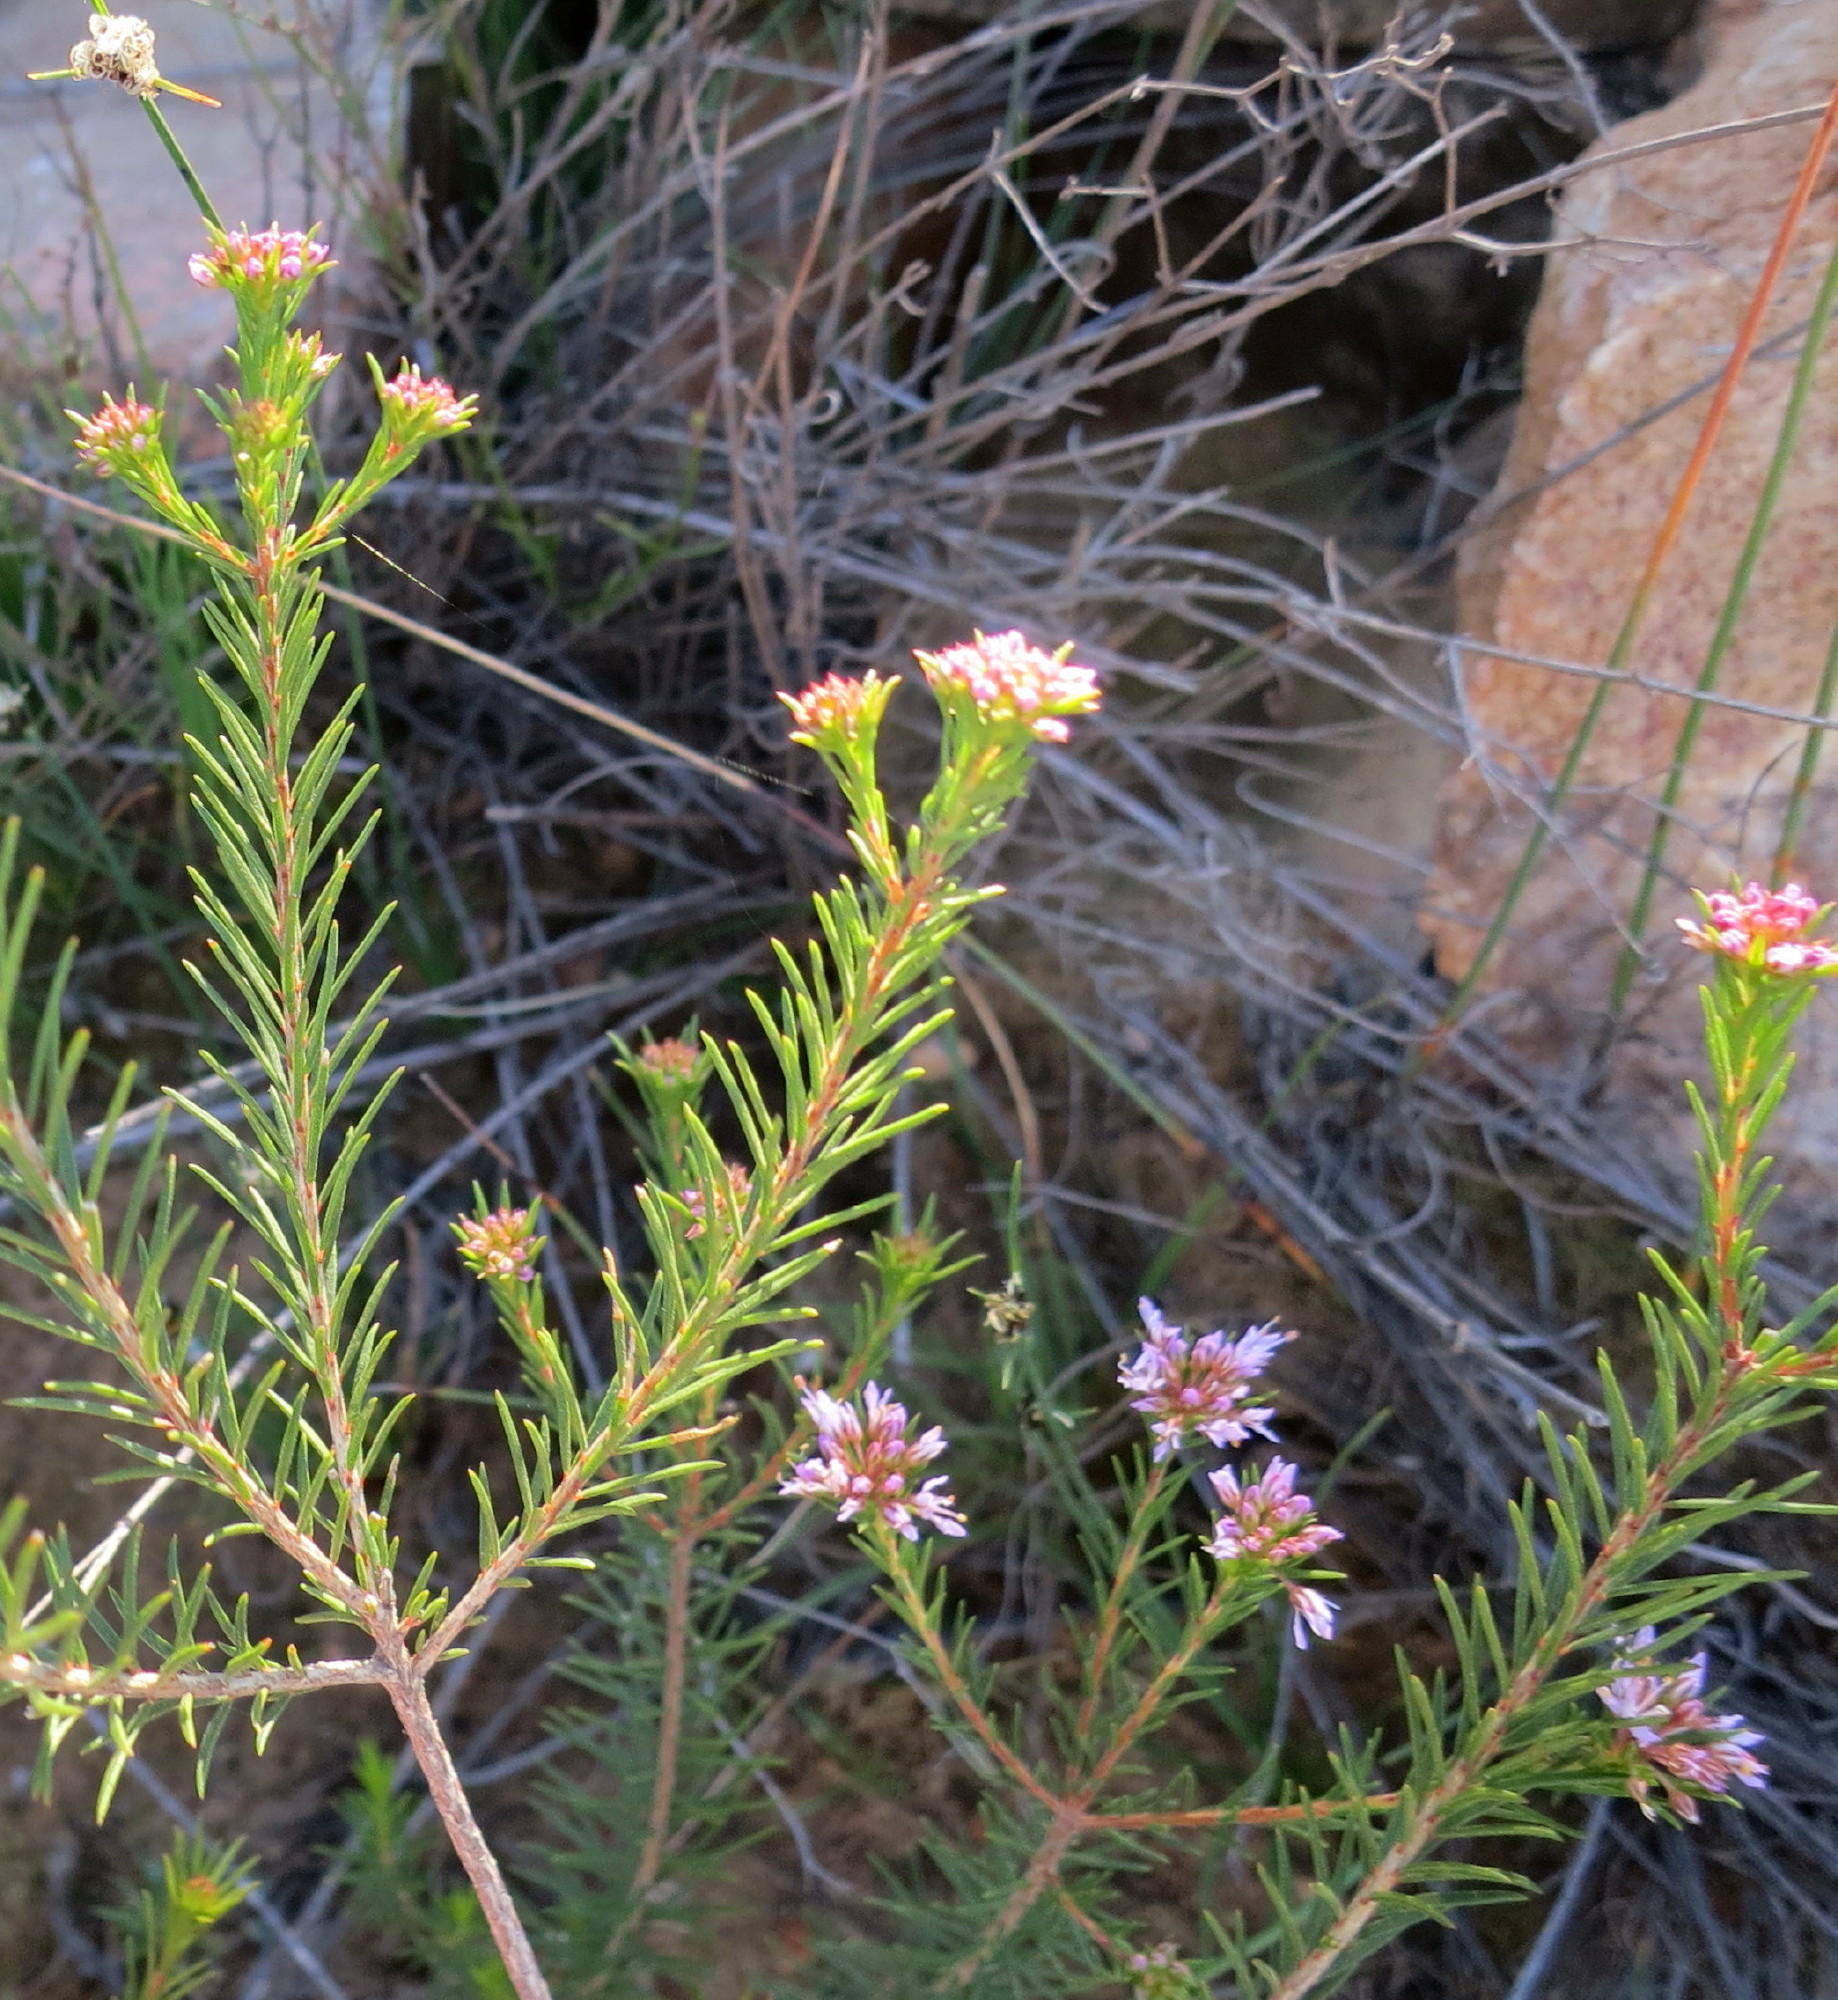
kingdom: Plantae
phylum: Tracheophyta
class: Magnoliopsida
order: Sapindales
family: Rutaceae
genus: Agathosma
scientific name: Agathosma
